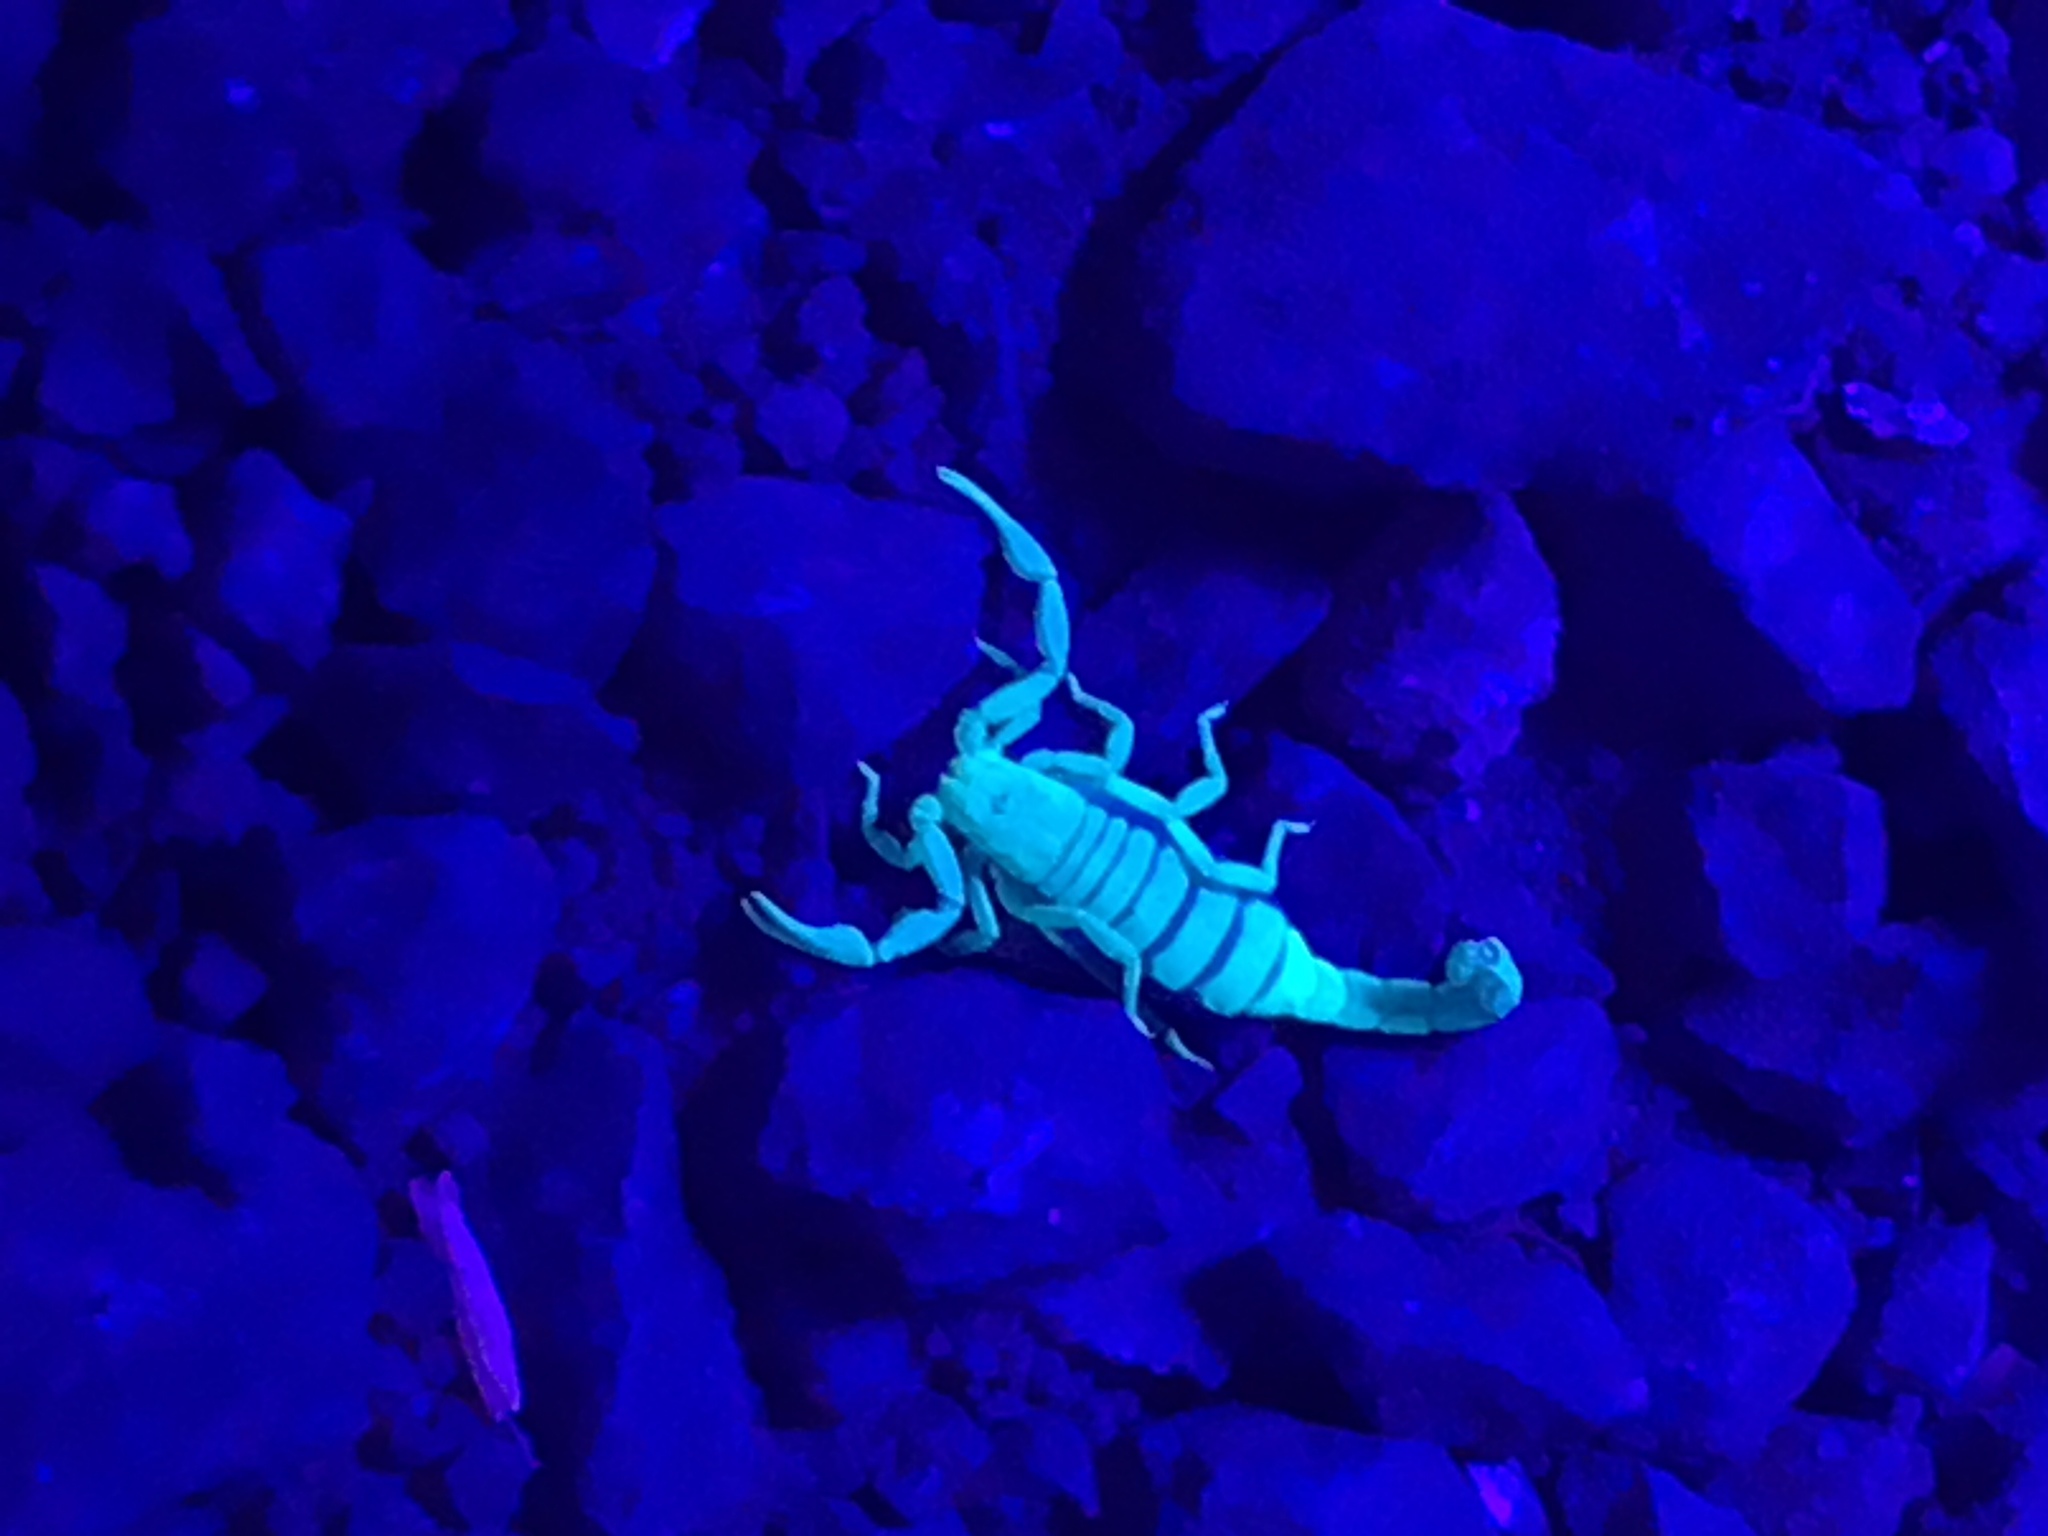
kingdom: Animalia
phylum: Arthropoda
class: Arachnida
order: Scorpiones
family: Vaejovidae
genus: Serradigitus
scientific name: Serradigitus gertschi
